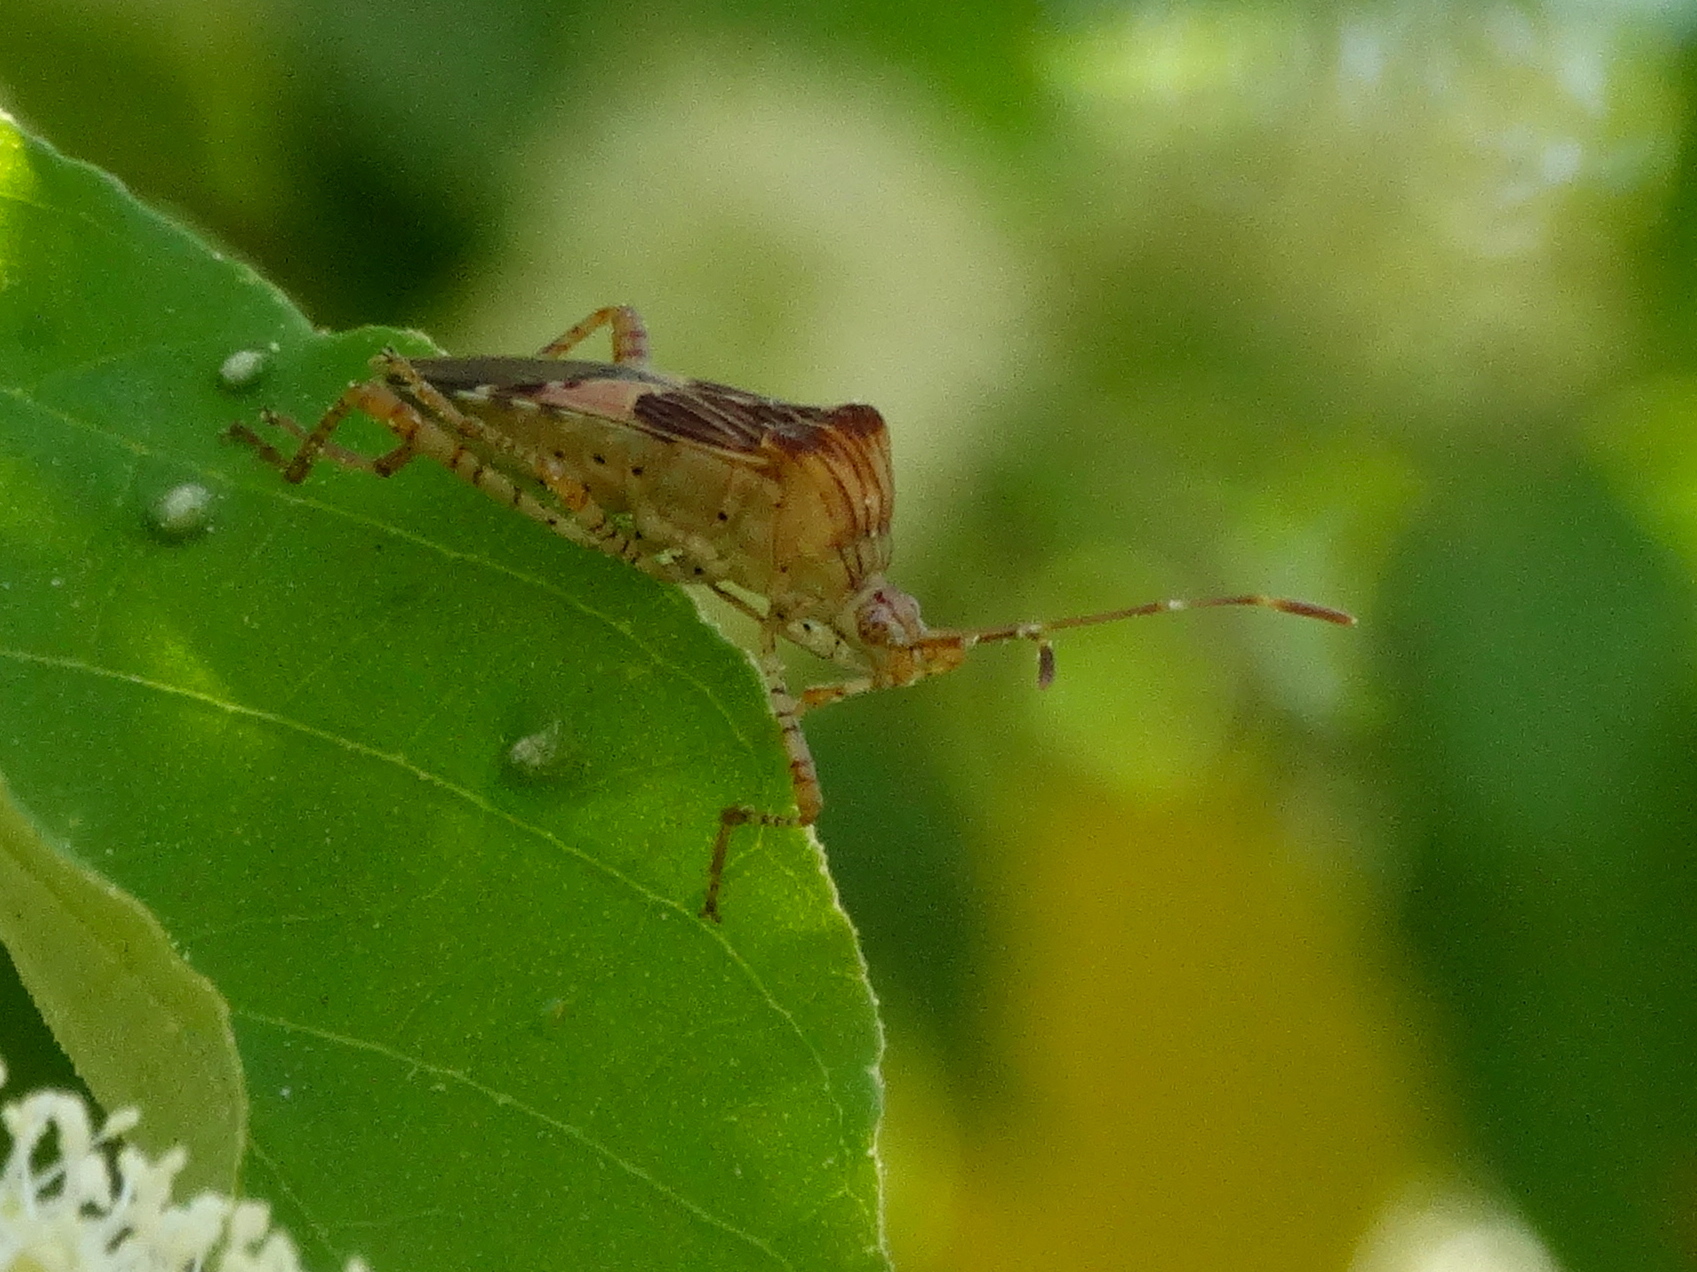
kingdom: Animalia
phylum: Arthropoda
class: Insecta
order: Hemiptera
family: Coreidae
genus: Hypselonotus
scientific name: Hypselonotus punctiventris
